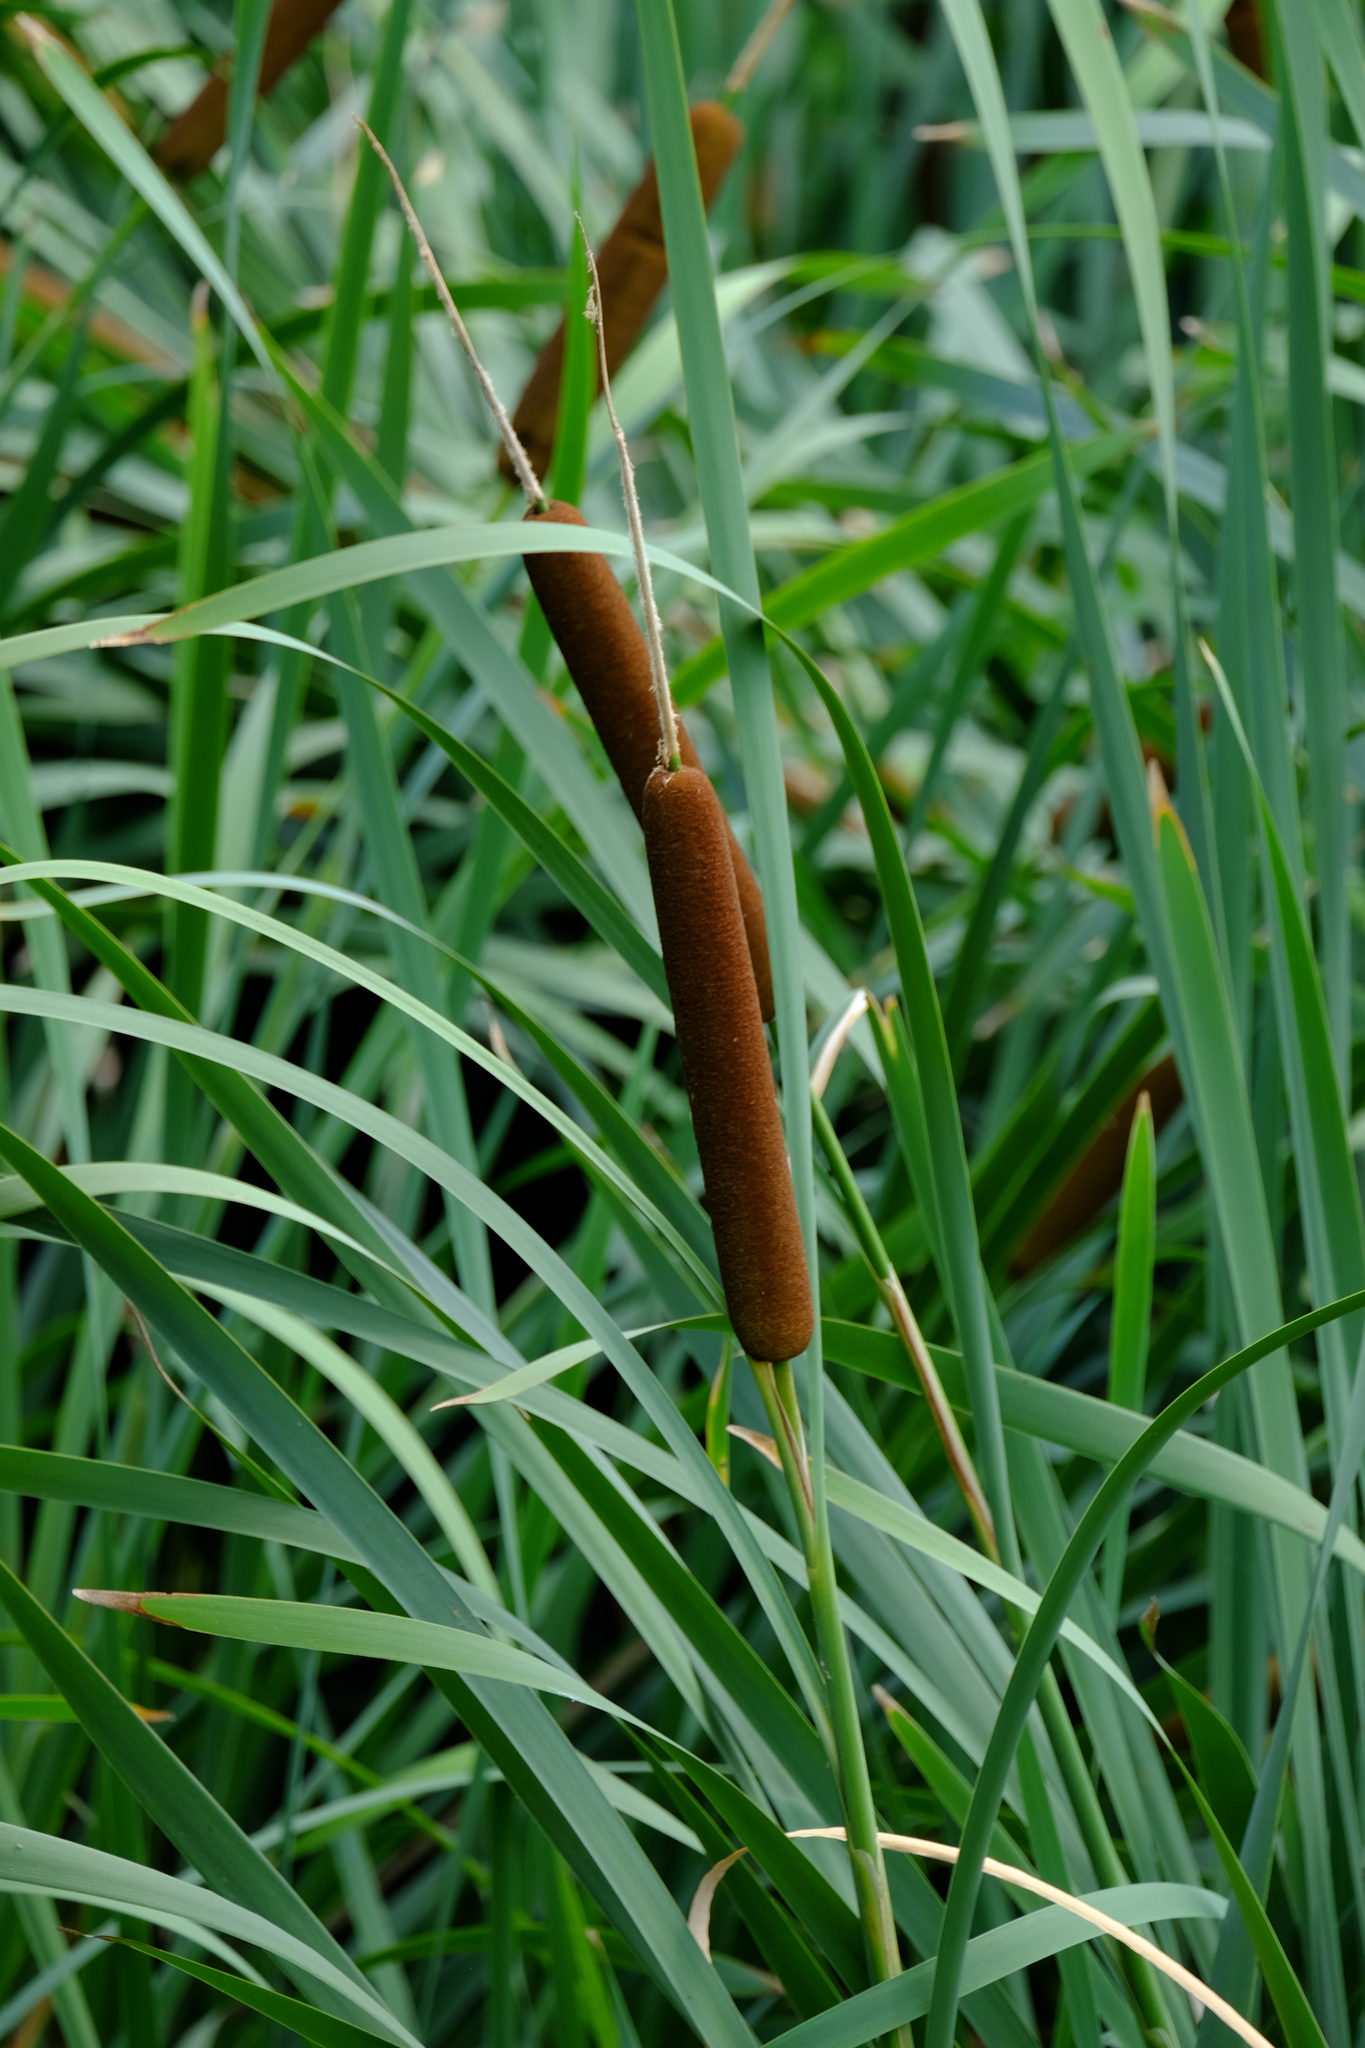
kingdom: Plantae
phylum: Tracheophyta
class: Liliopsida
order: Poales
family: Typhaceae
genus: Typha
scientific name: Typha glauca
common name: Blue cattail
